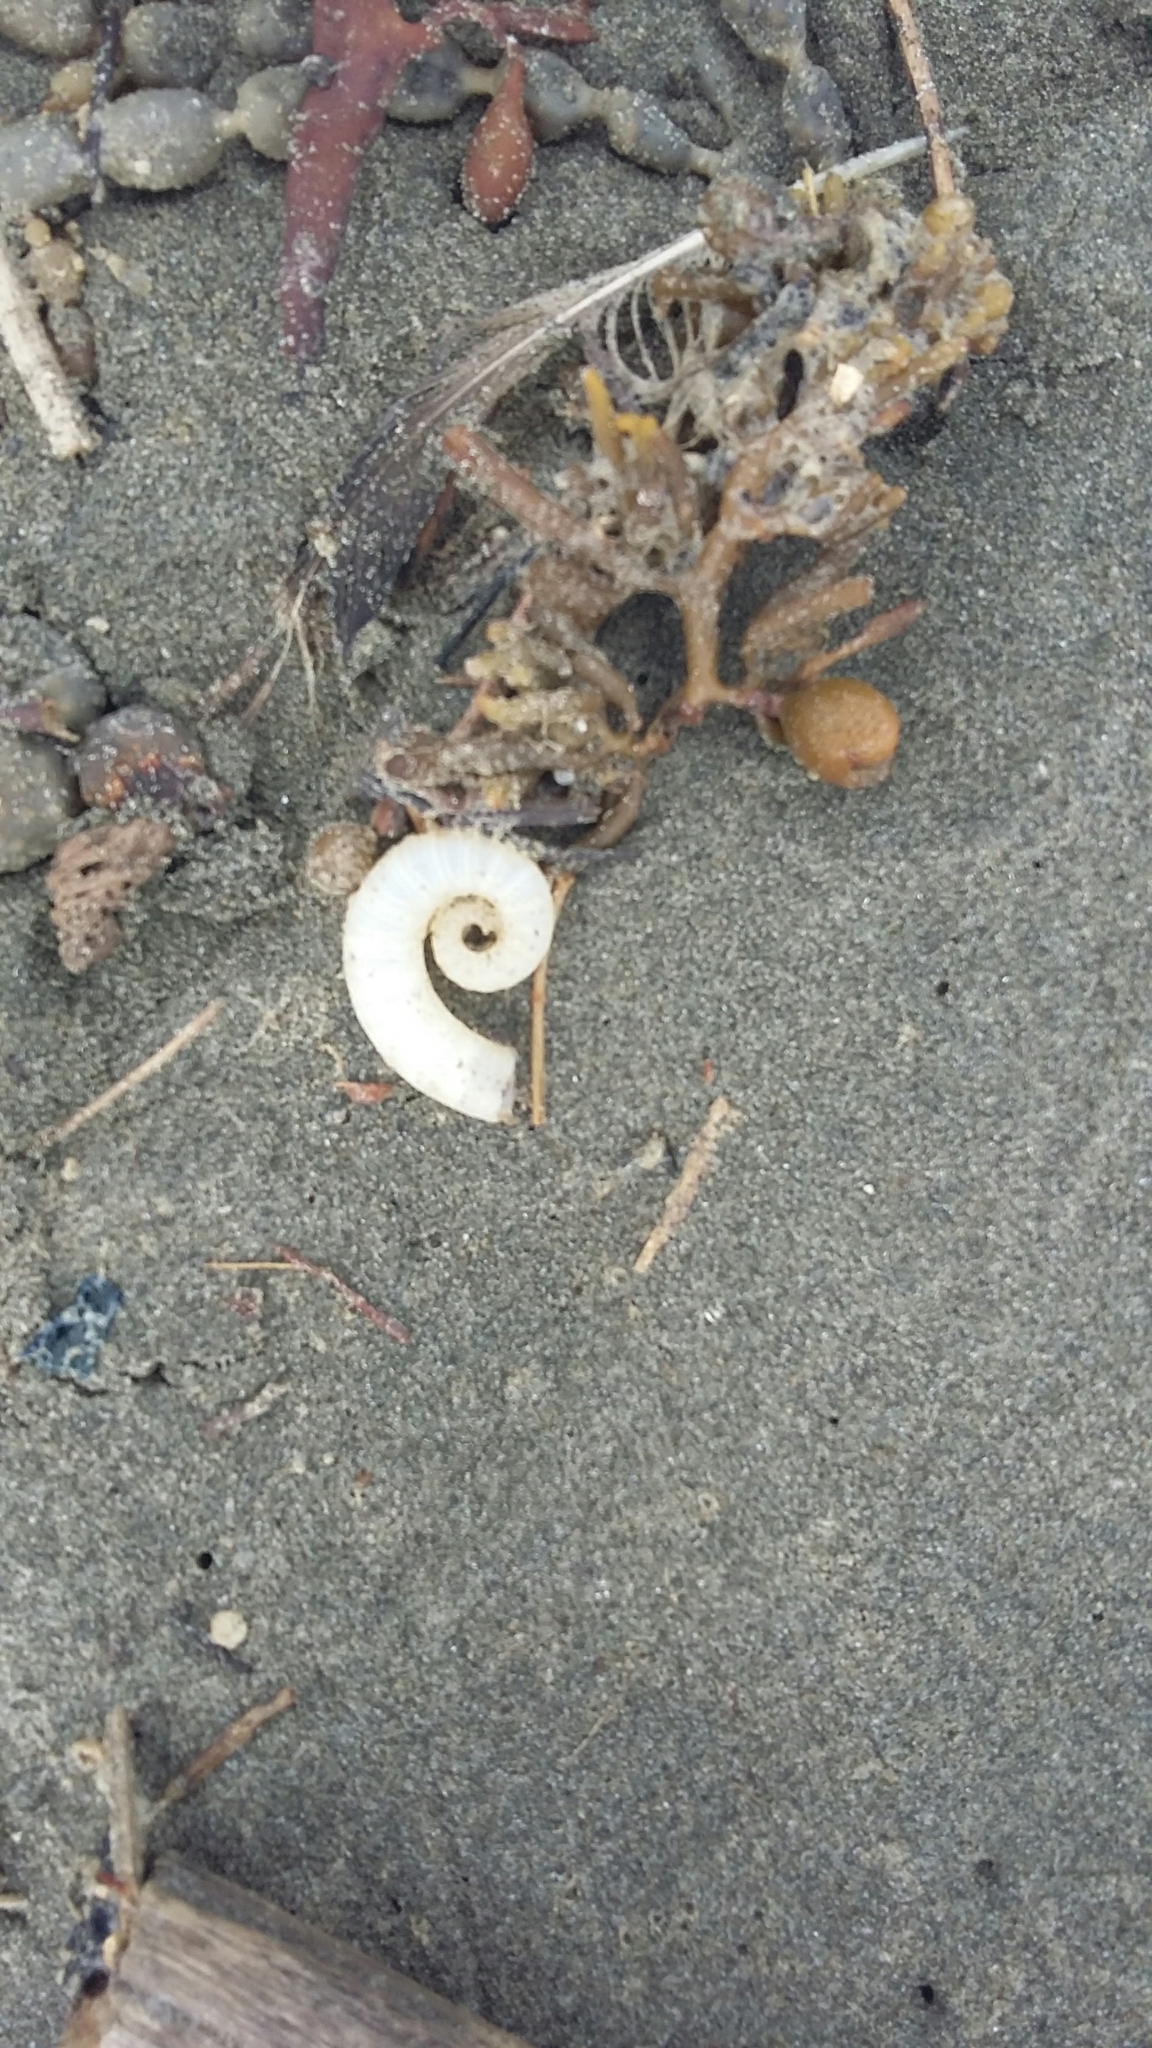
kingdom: Animalia
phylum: Mollusca
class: Cephalopoda
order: Spirulida
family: Spirulidae
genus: Spirula
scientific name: Spirula spirula
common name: Ram's horn squid
